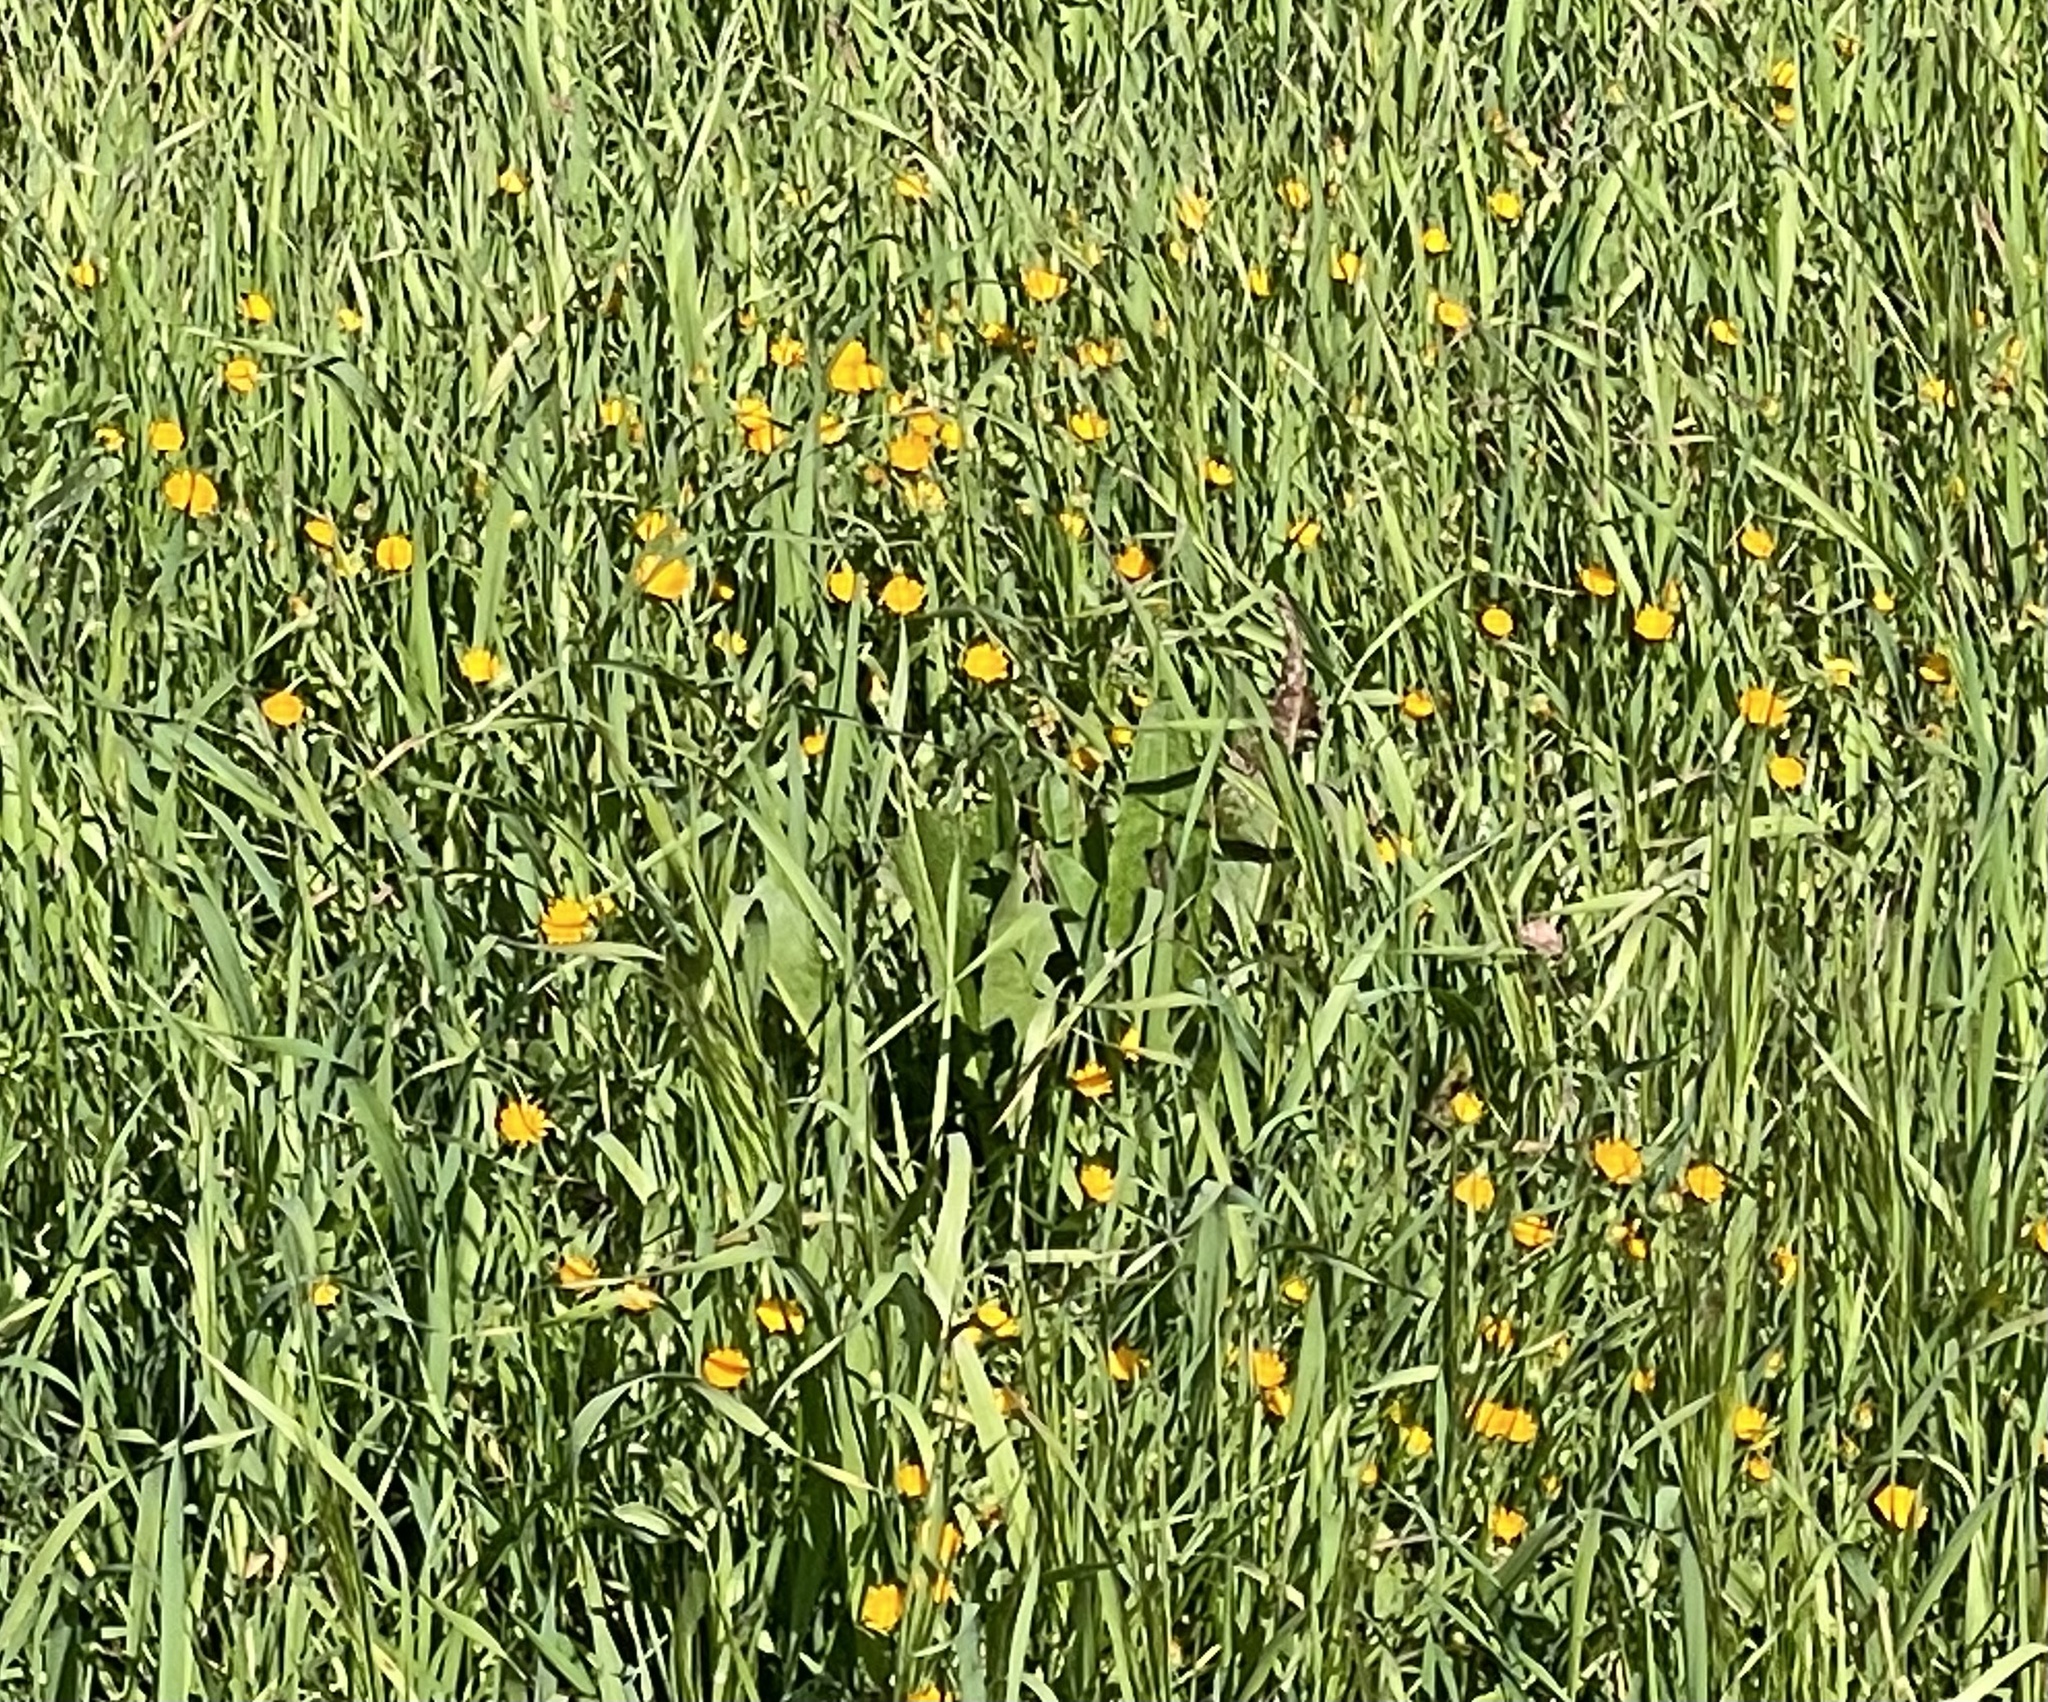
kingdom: Plantae
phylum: Tracheophyta
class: Magnoliopsida
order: Asterales
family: Asteraceae
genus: Calendula
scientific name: Calendula arvensis
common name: Field marigold
